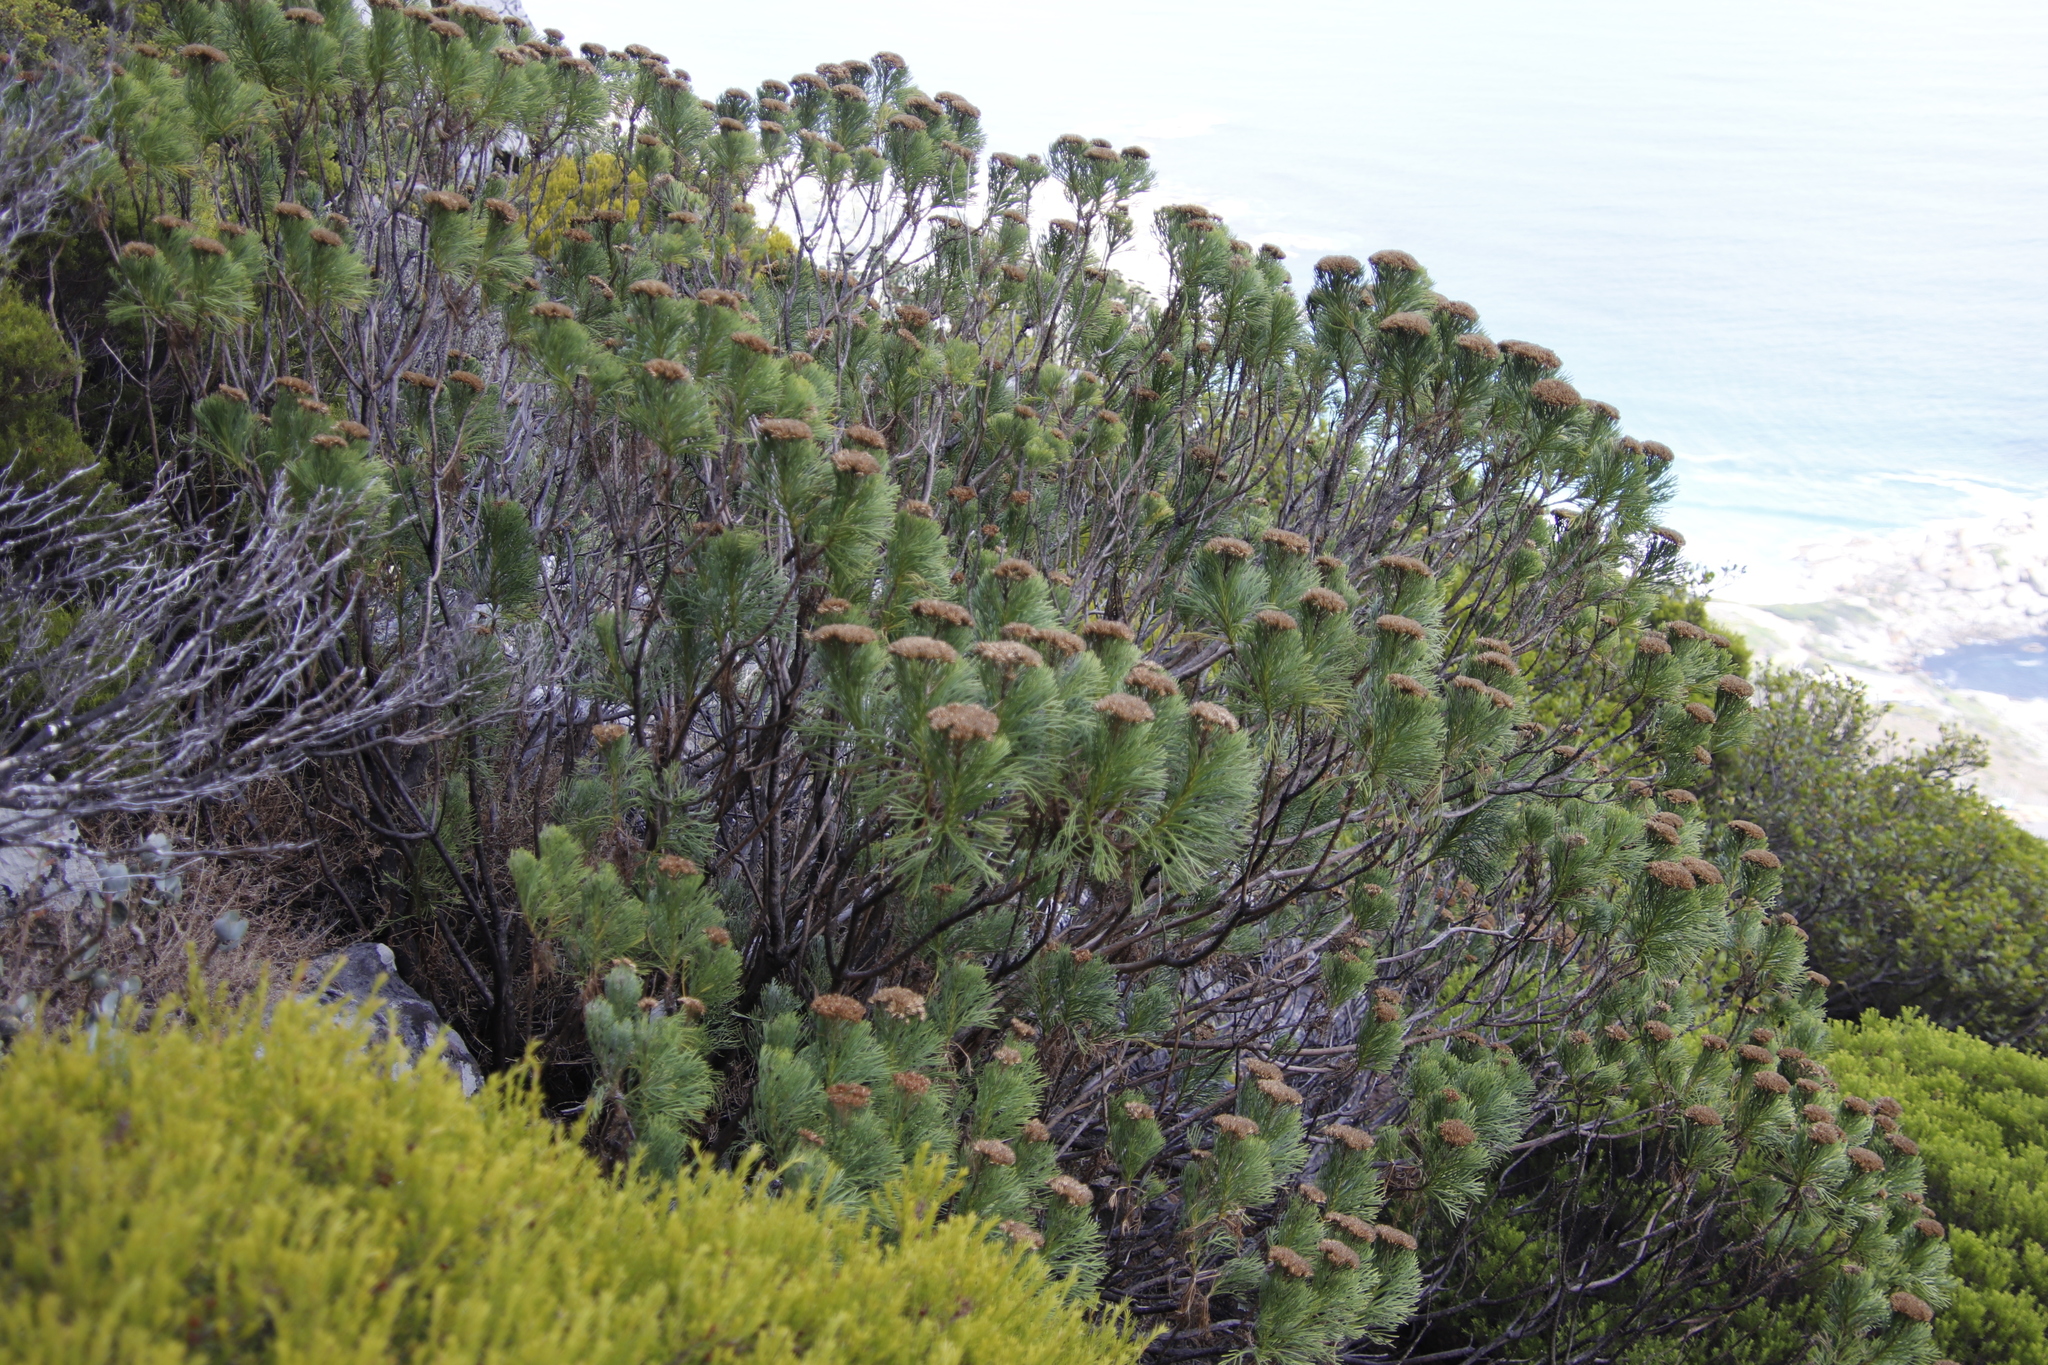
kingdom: Plantae
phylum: Tracheophyta
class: Magnoliopsida
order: Asterales
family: Asteraceae
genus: Hymenolepis
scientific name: Hymenolepis crithmifolia
